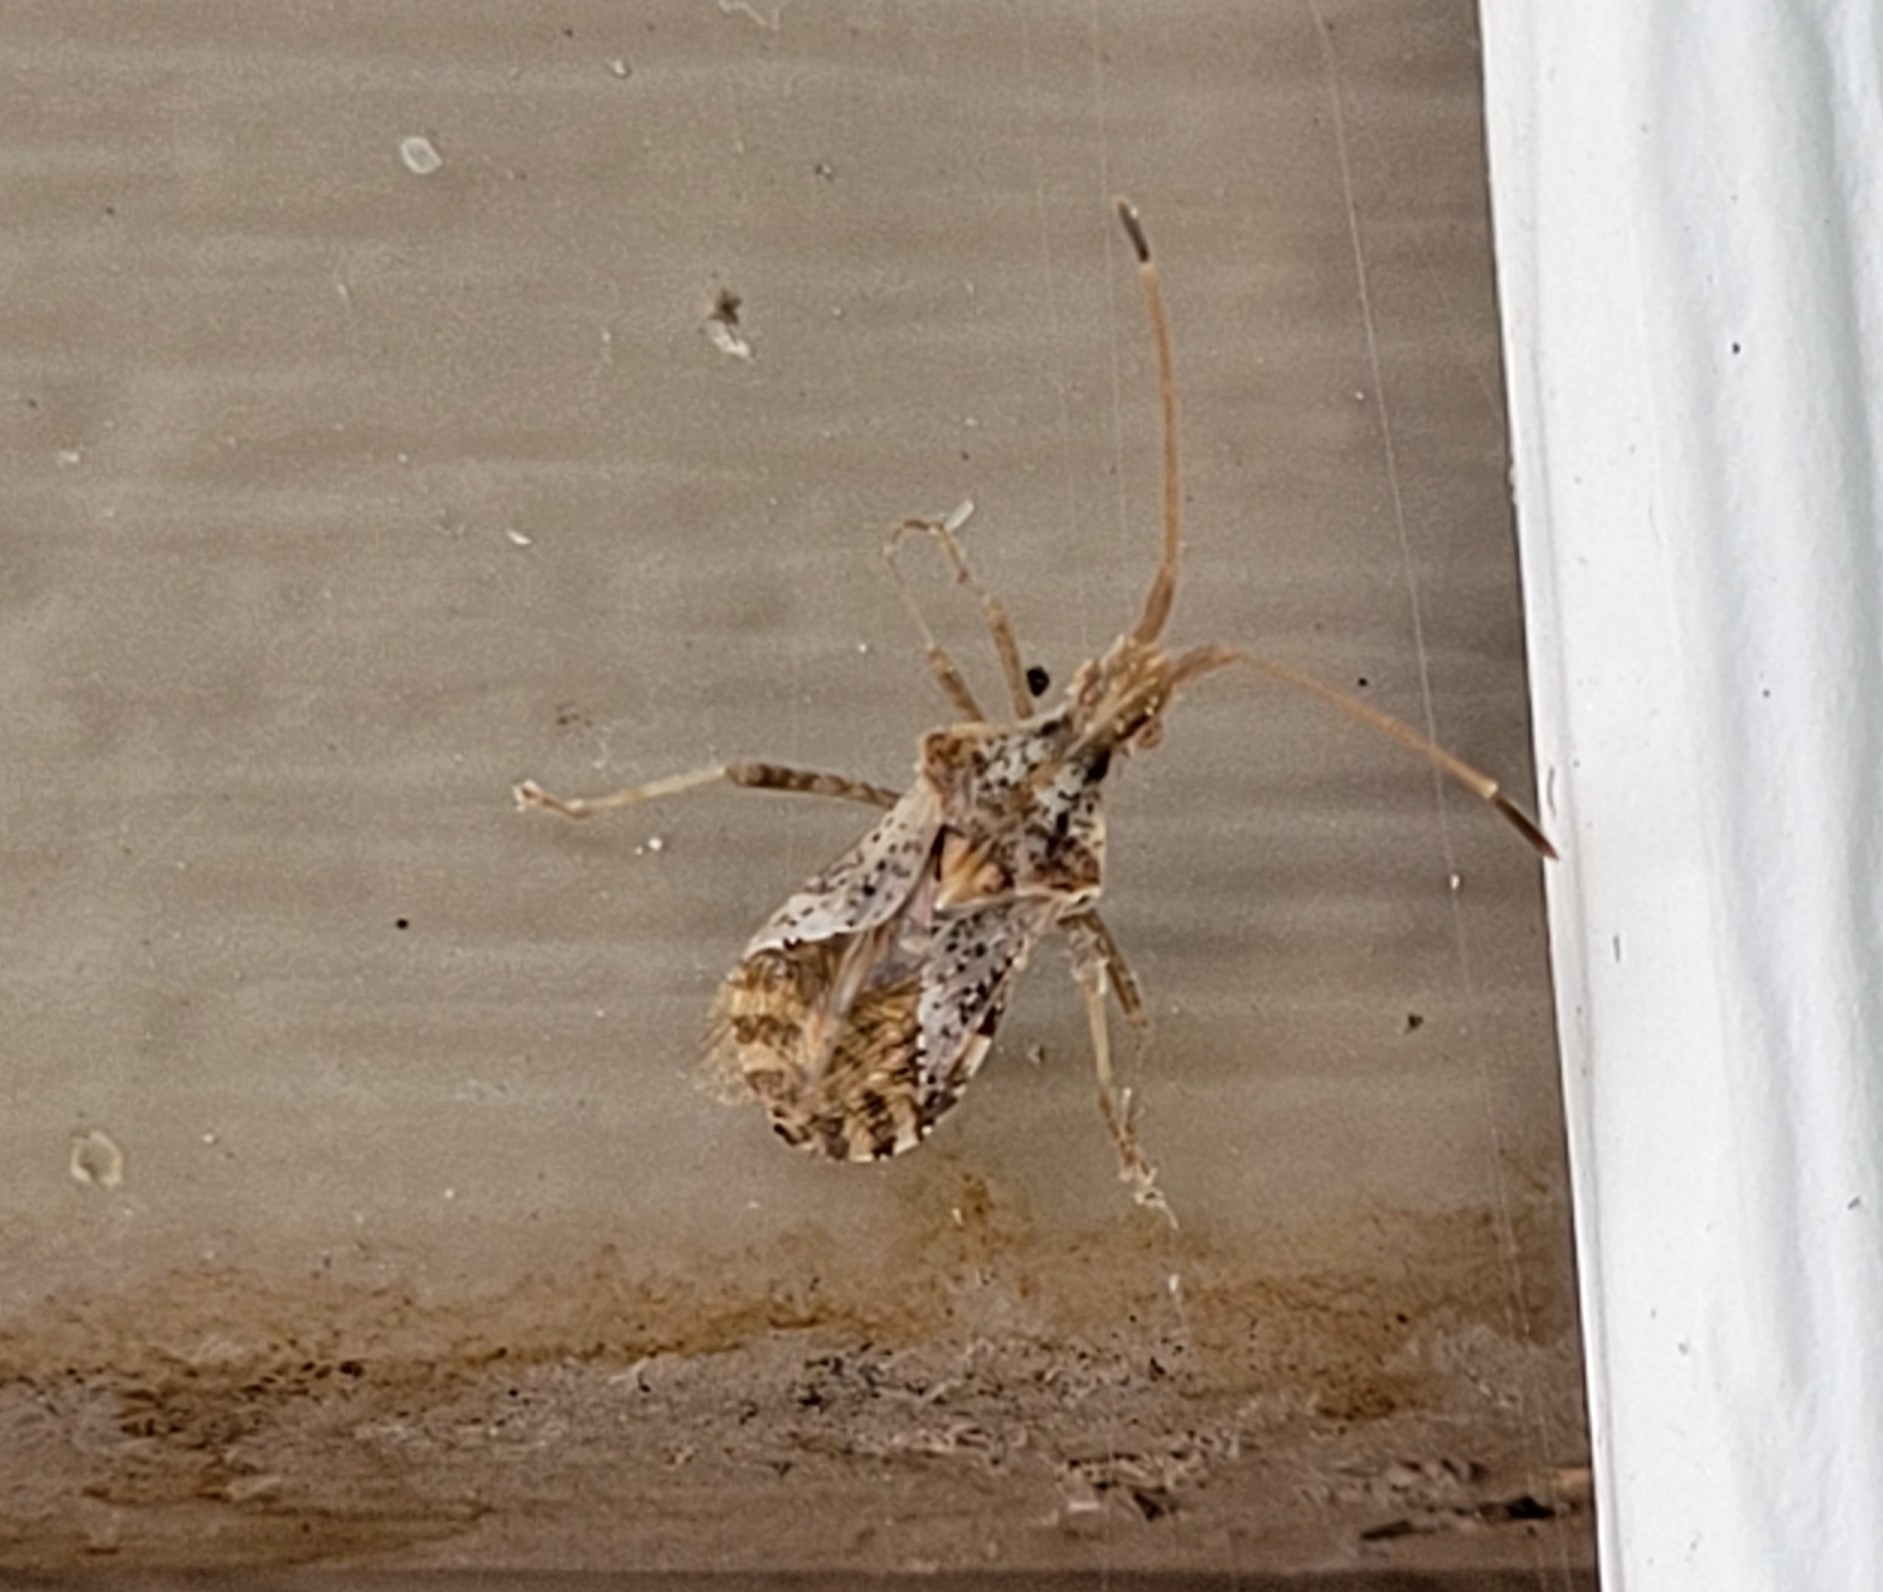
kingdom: Animalia
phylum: Arthropoda
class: Insecta
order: Hemiptera
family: Coreidae
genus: Centrocoris
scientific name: Centrocoris volxemi
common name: Leaf-footed bug
